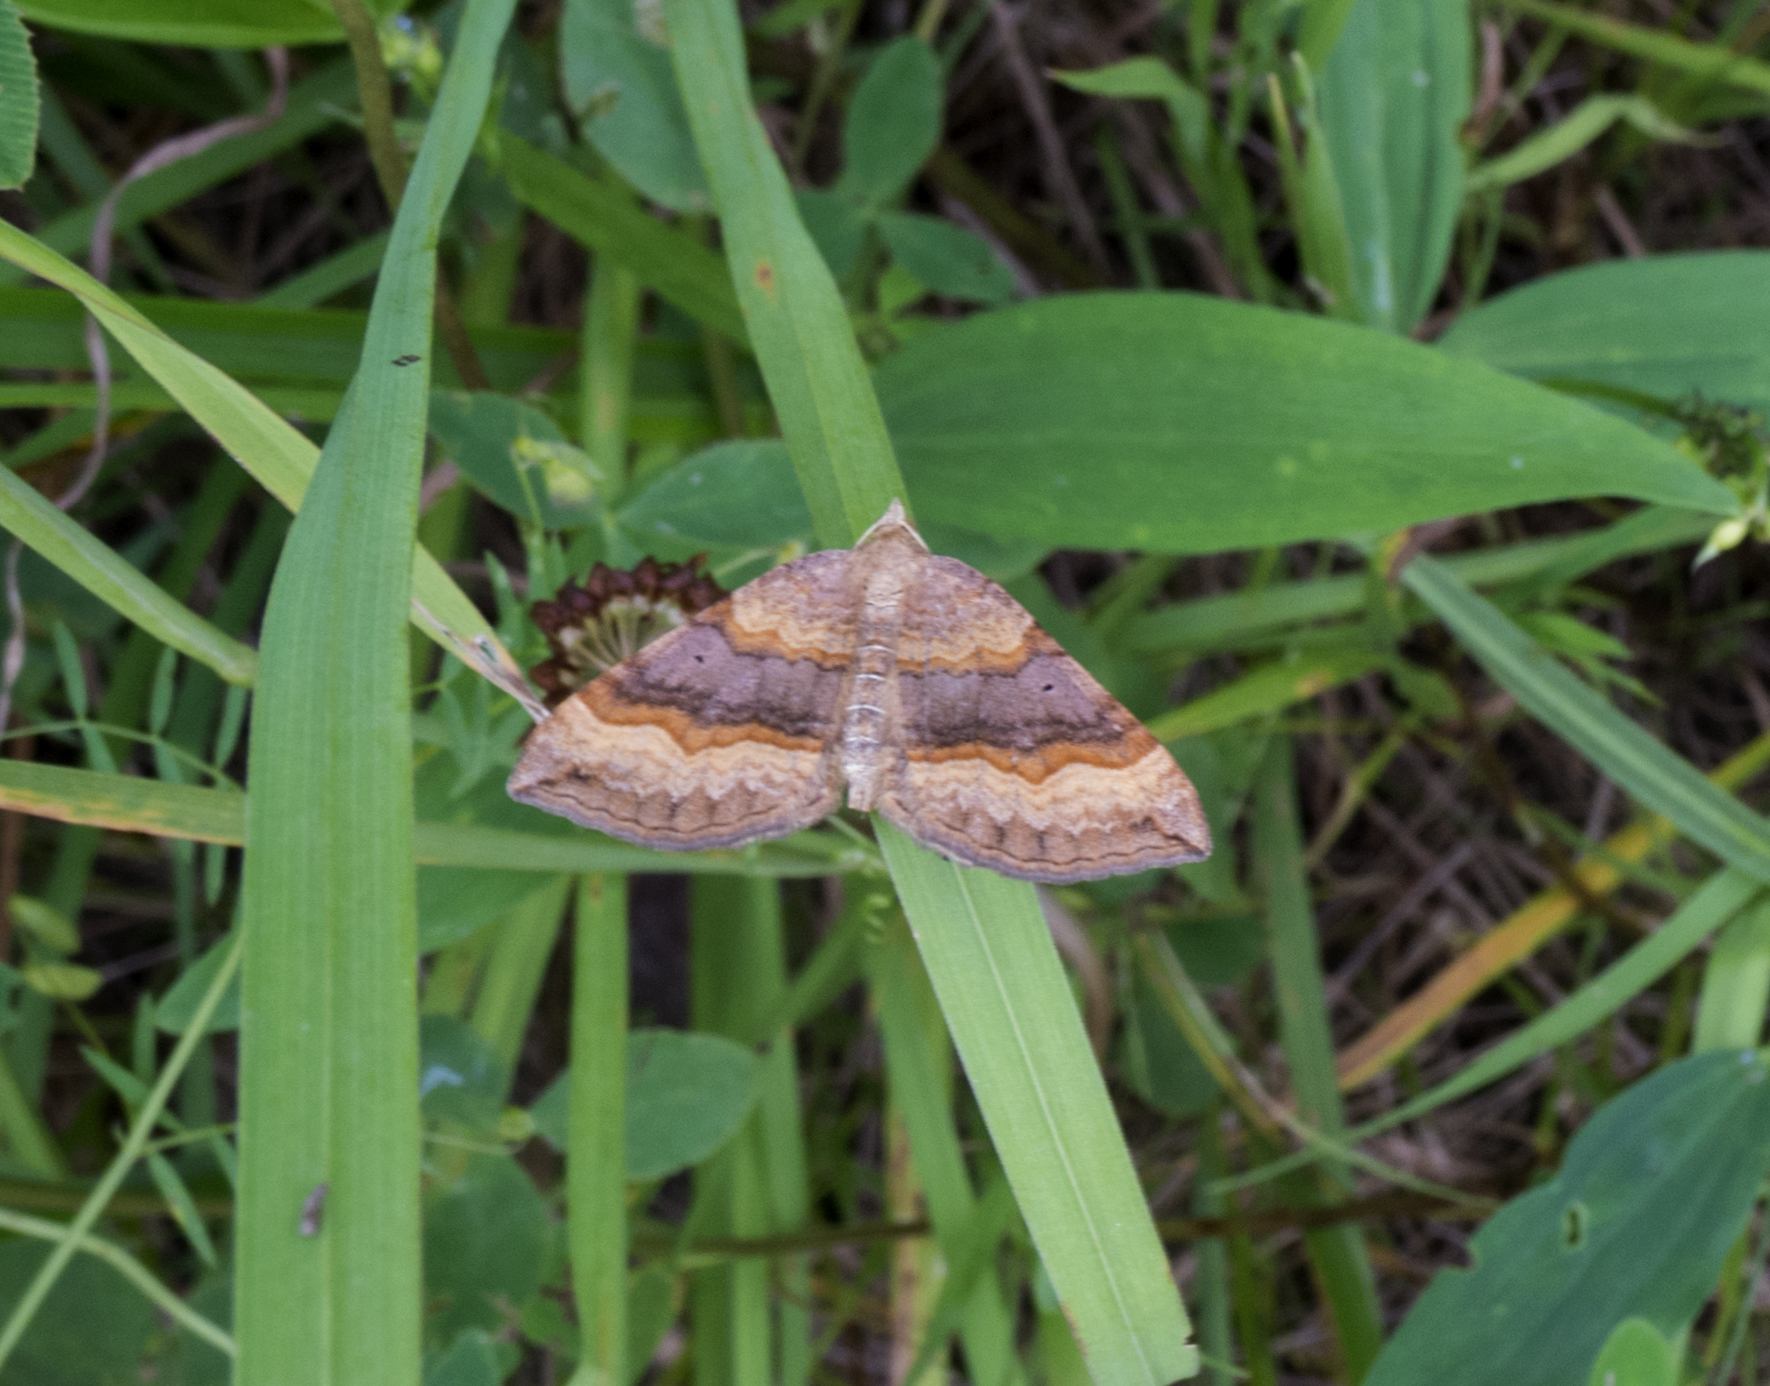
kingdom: Animalia
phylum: Arthropoda
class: Insecta
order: Lepidoptera
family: Geometridae
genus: Scotopteryx
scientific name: Scotopteryx chenopodiata
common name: Shaded broad-bar
